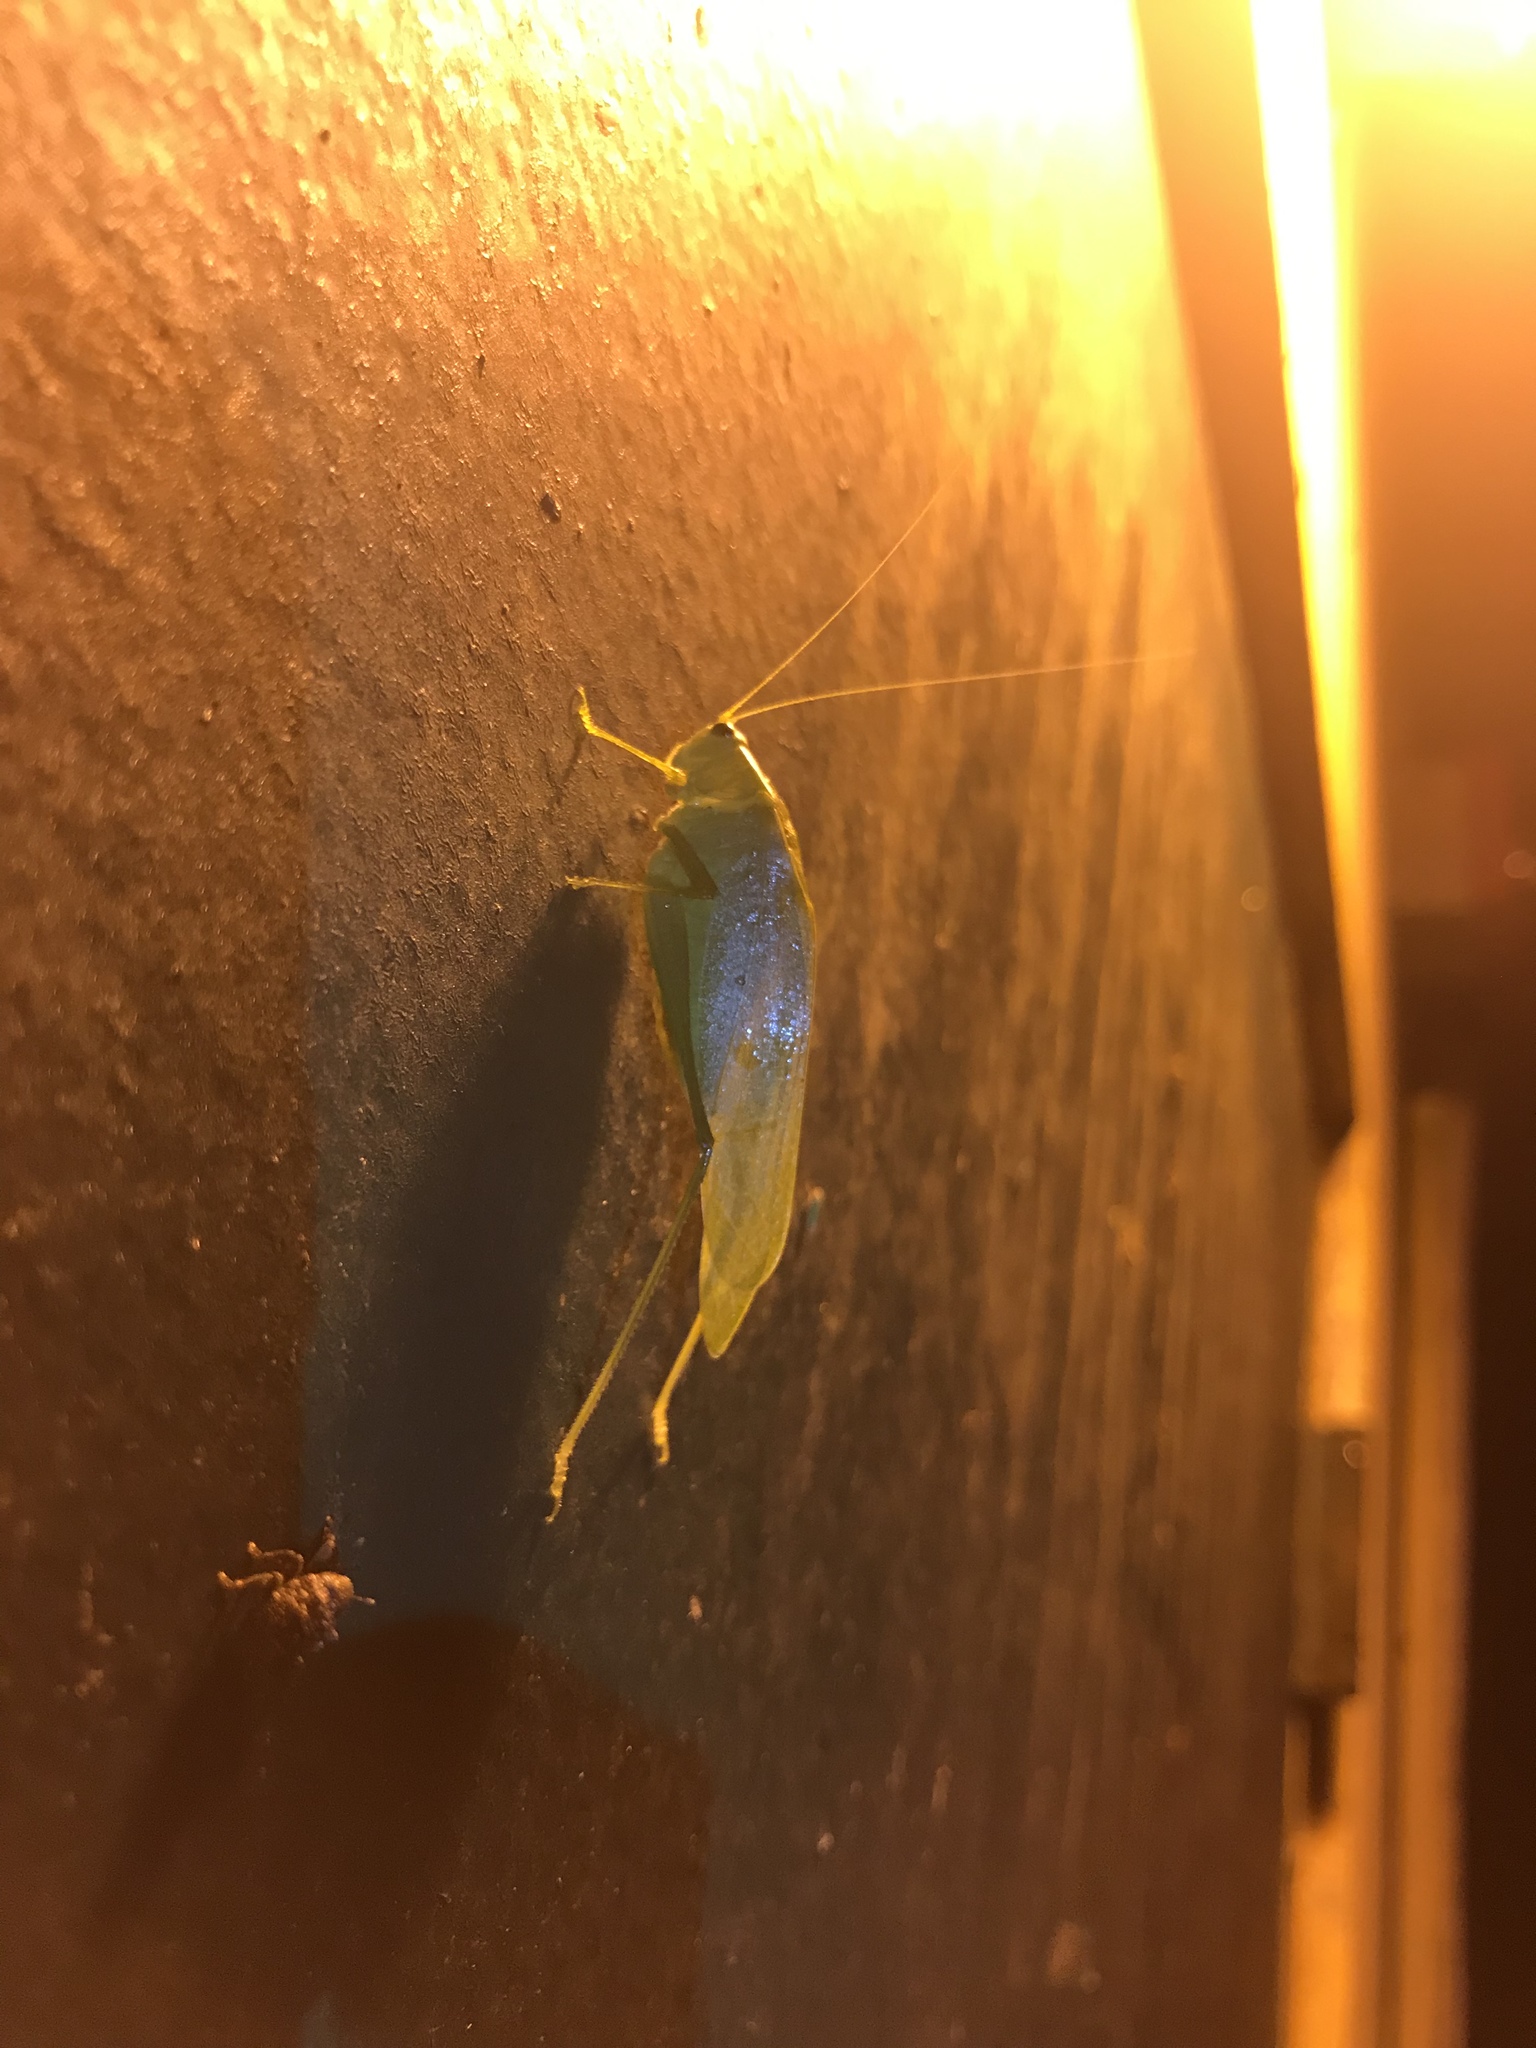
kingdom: Animalia
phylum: Arthropoda
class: Insecta
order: Orthoptera
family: Tettigoniidae
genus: Chloroscirtus
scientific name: Chloroscirtus discocercus
